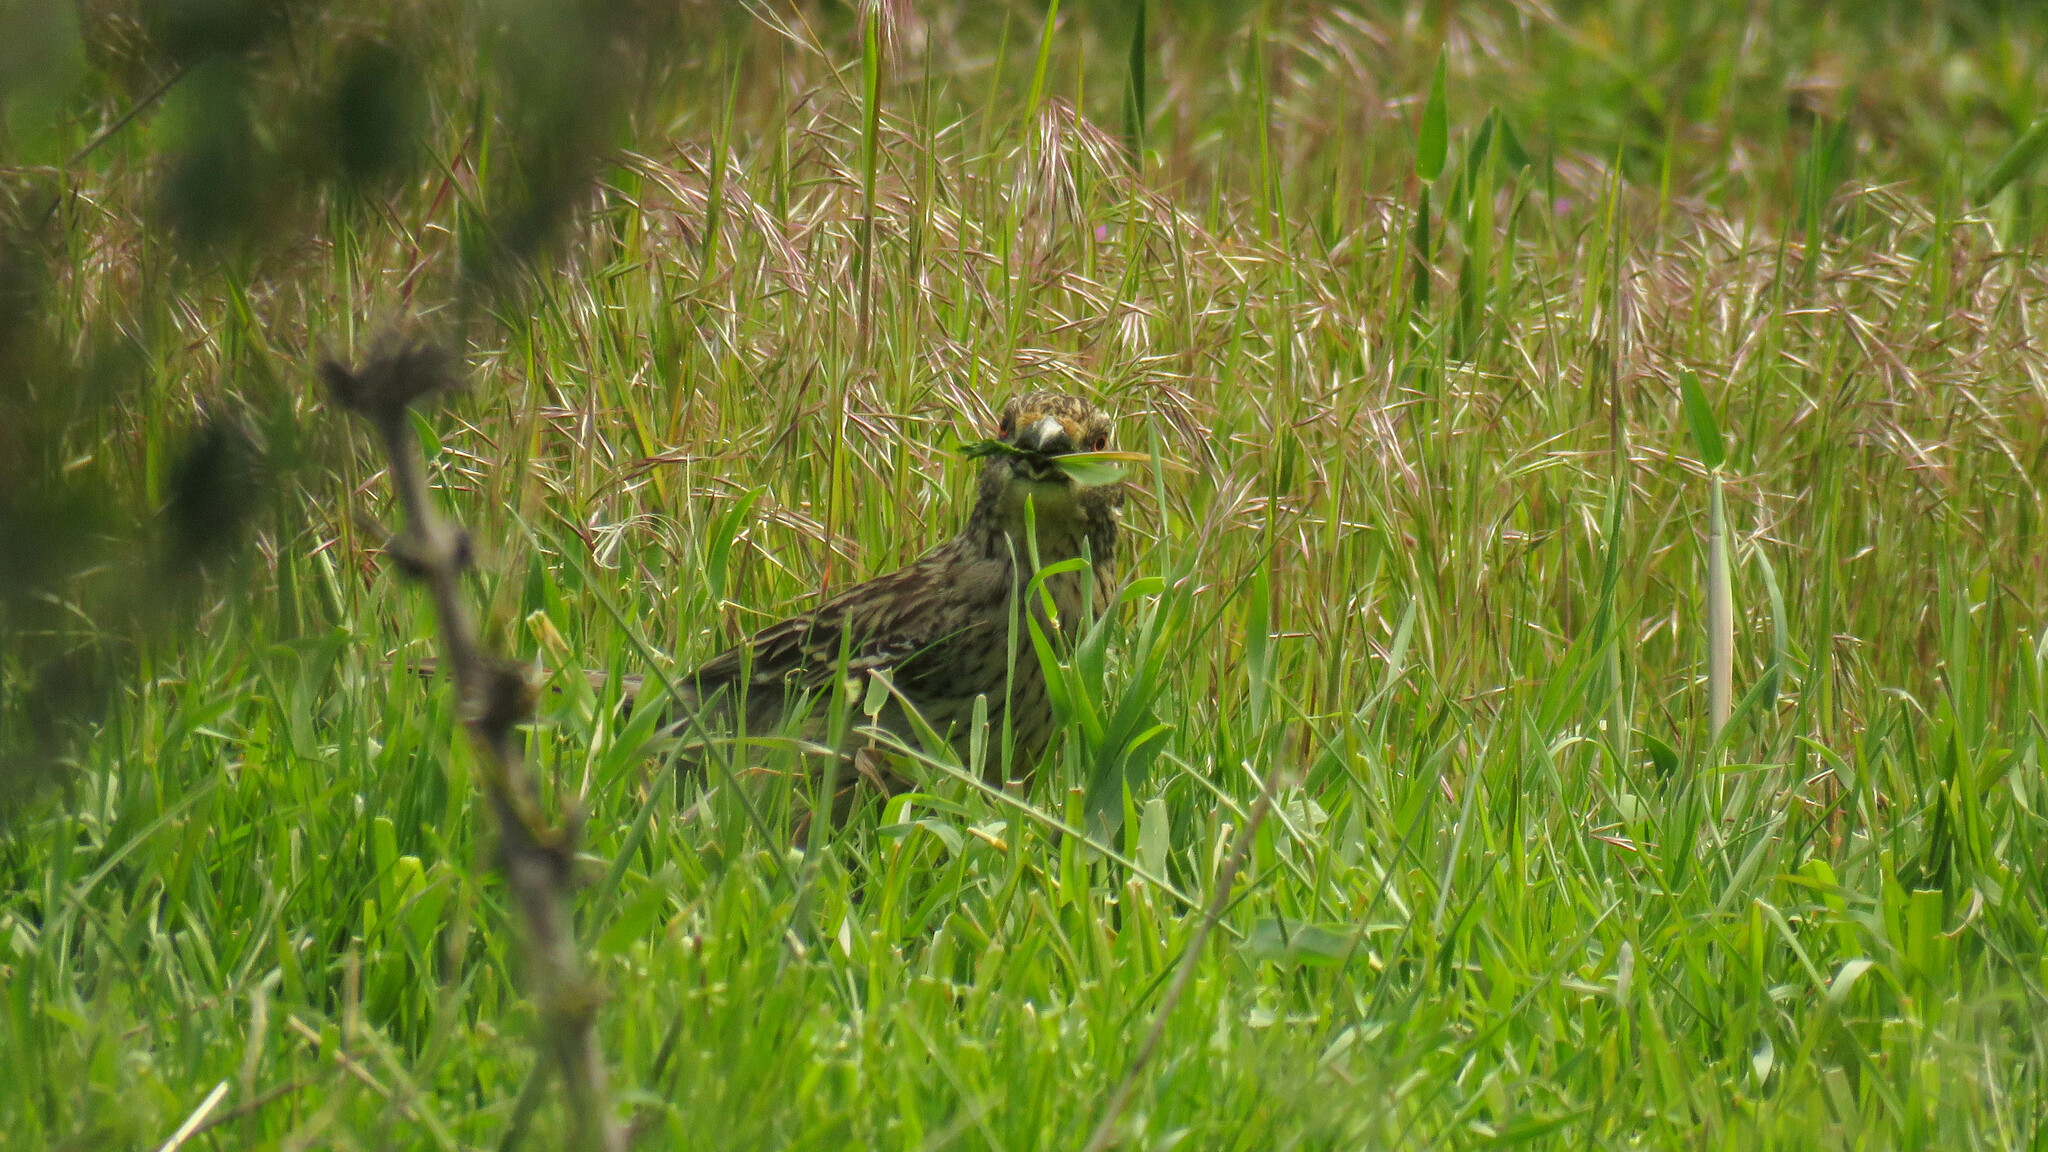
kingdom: Animalia
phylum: Chordata
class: Aves
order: Passeriformes
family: Cotingidae
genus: Phytotoma
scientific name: Phytotoma rara
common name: Rufous-tailed plantcutter
